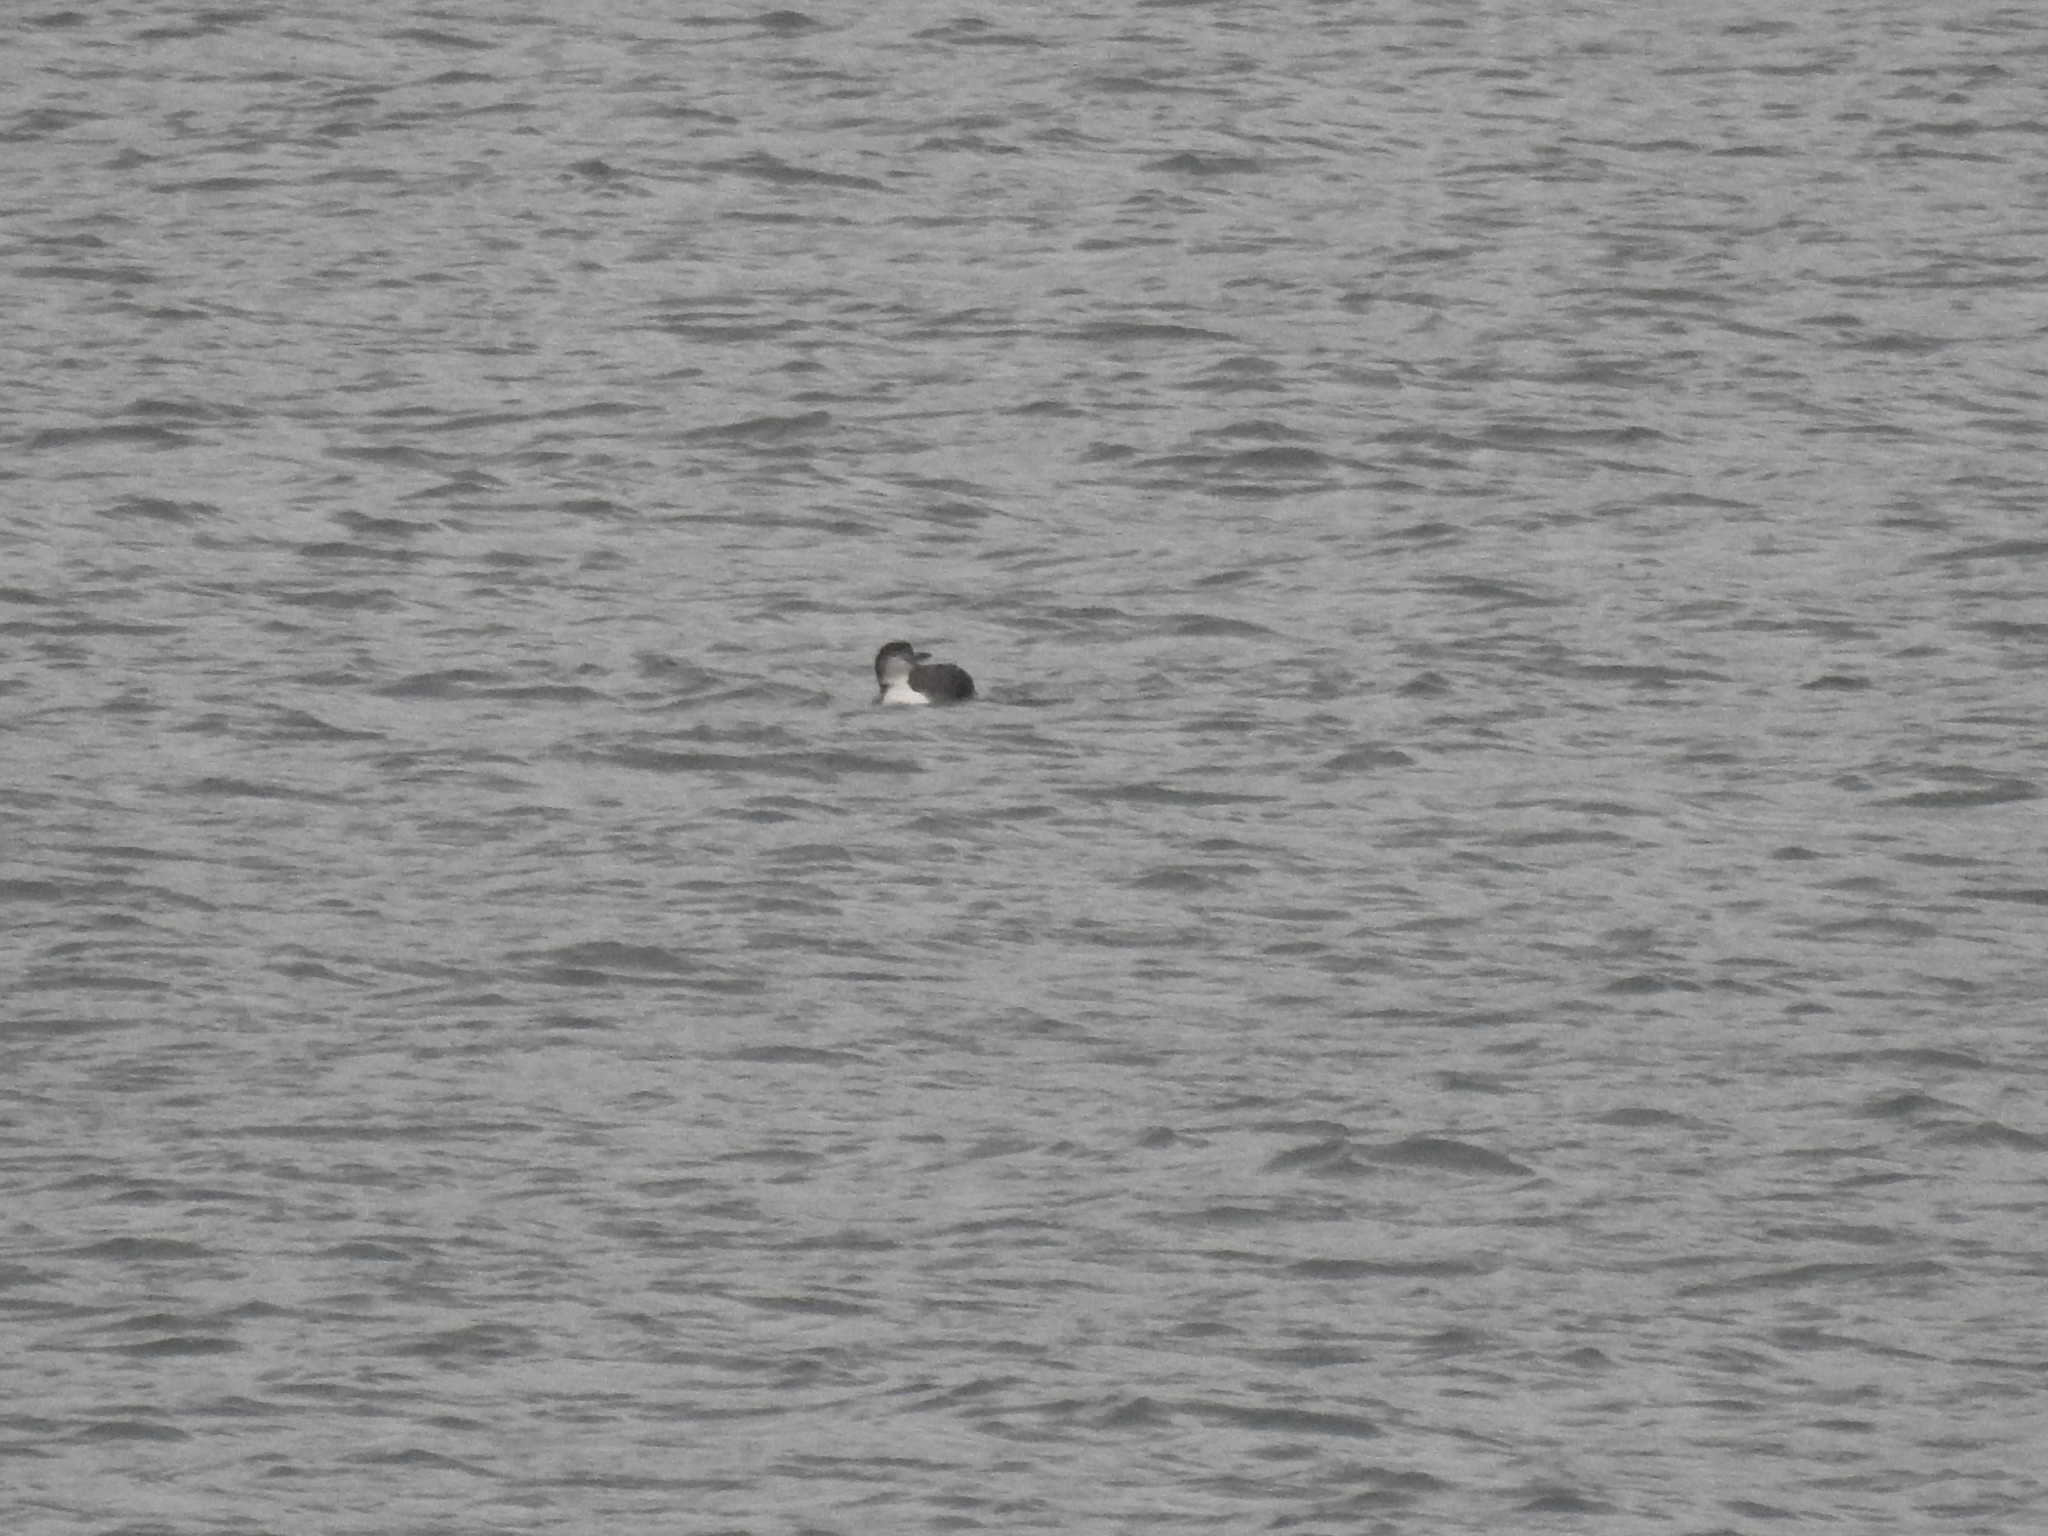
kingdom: Animalia
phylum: Chordata
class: Aves
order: Gaviiformes
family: Gaviidae
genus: Gavia
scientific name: Gavia immer
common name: Common loon
